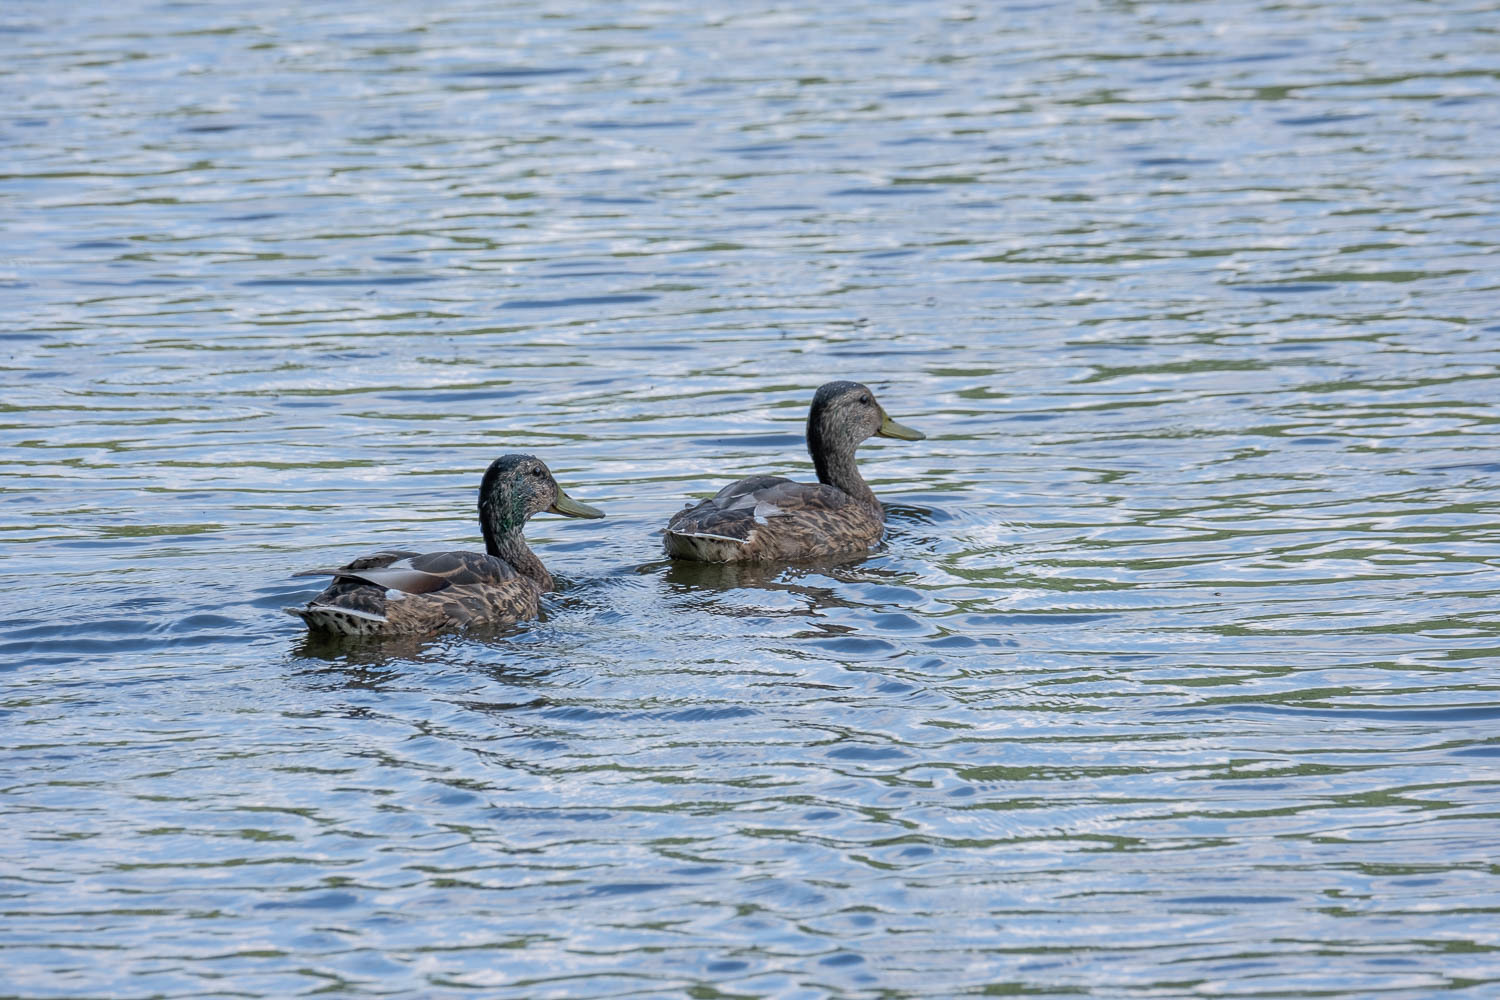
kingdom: Animalia
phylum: Chordata
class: Aves
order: Anseriformes
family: Anatidae
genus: Anas
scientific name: Anas platyrhynchos
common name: Mallard
